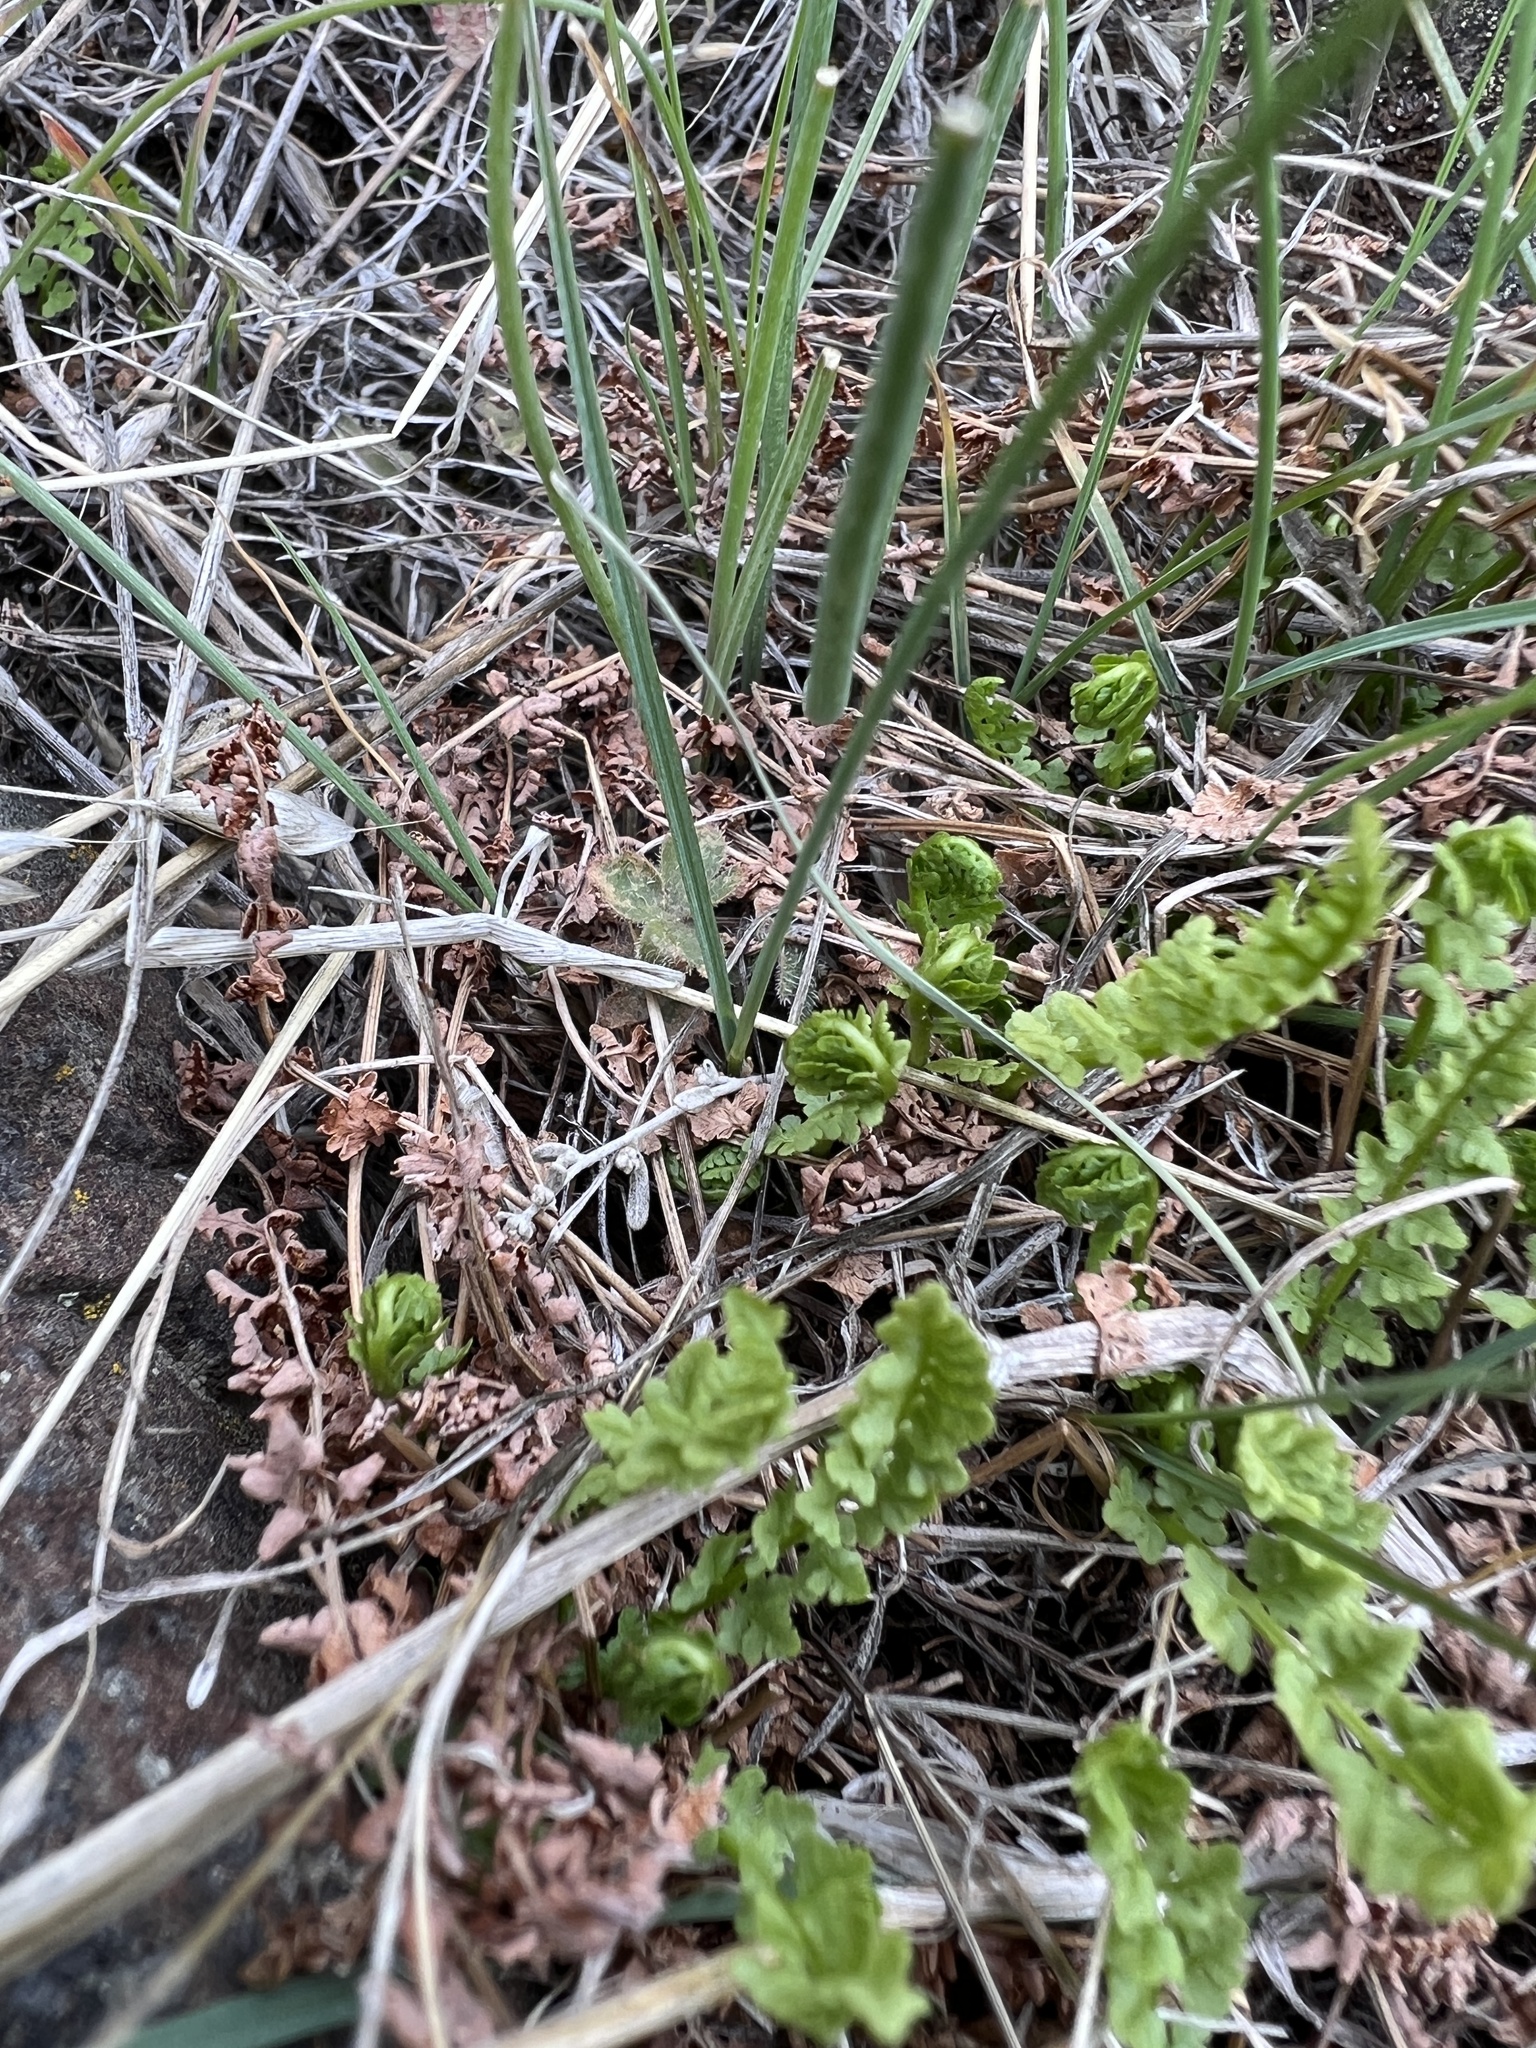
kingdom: Plantae
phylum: Tracheophyta
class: Polypodiopsida
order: Polypodiales
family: Woodsiaceae
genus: Physematium
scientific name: Physematium oreganum
